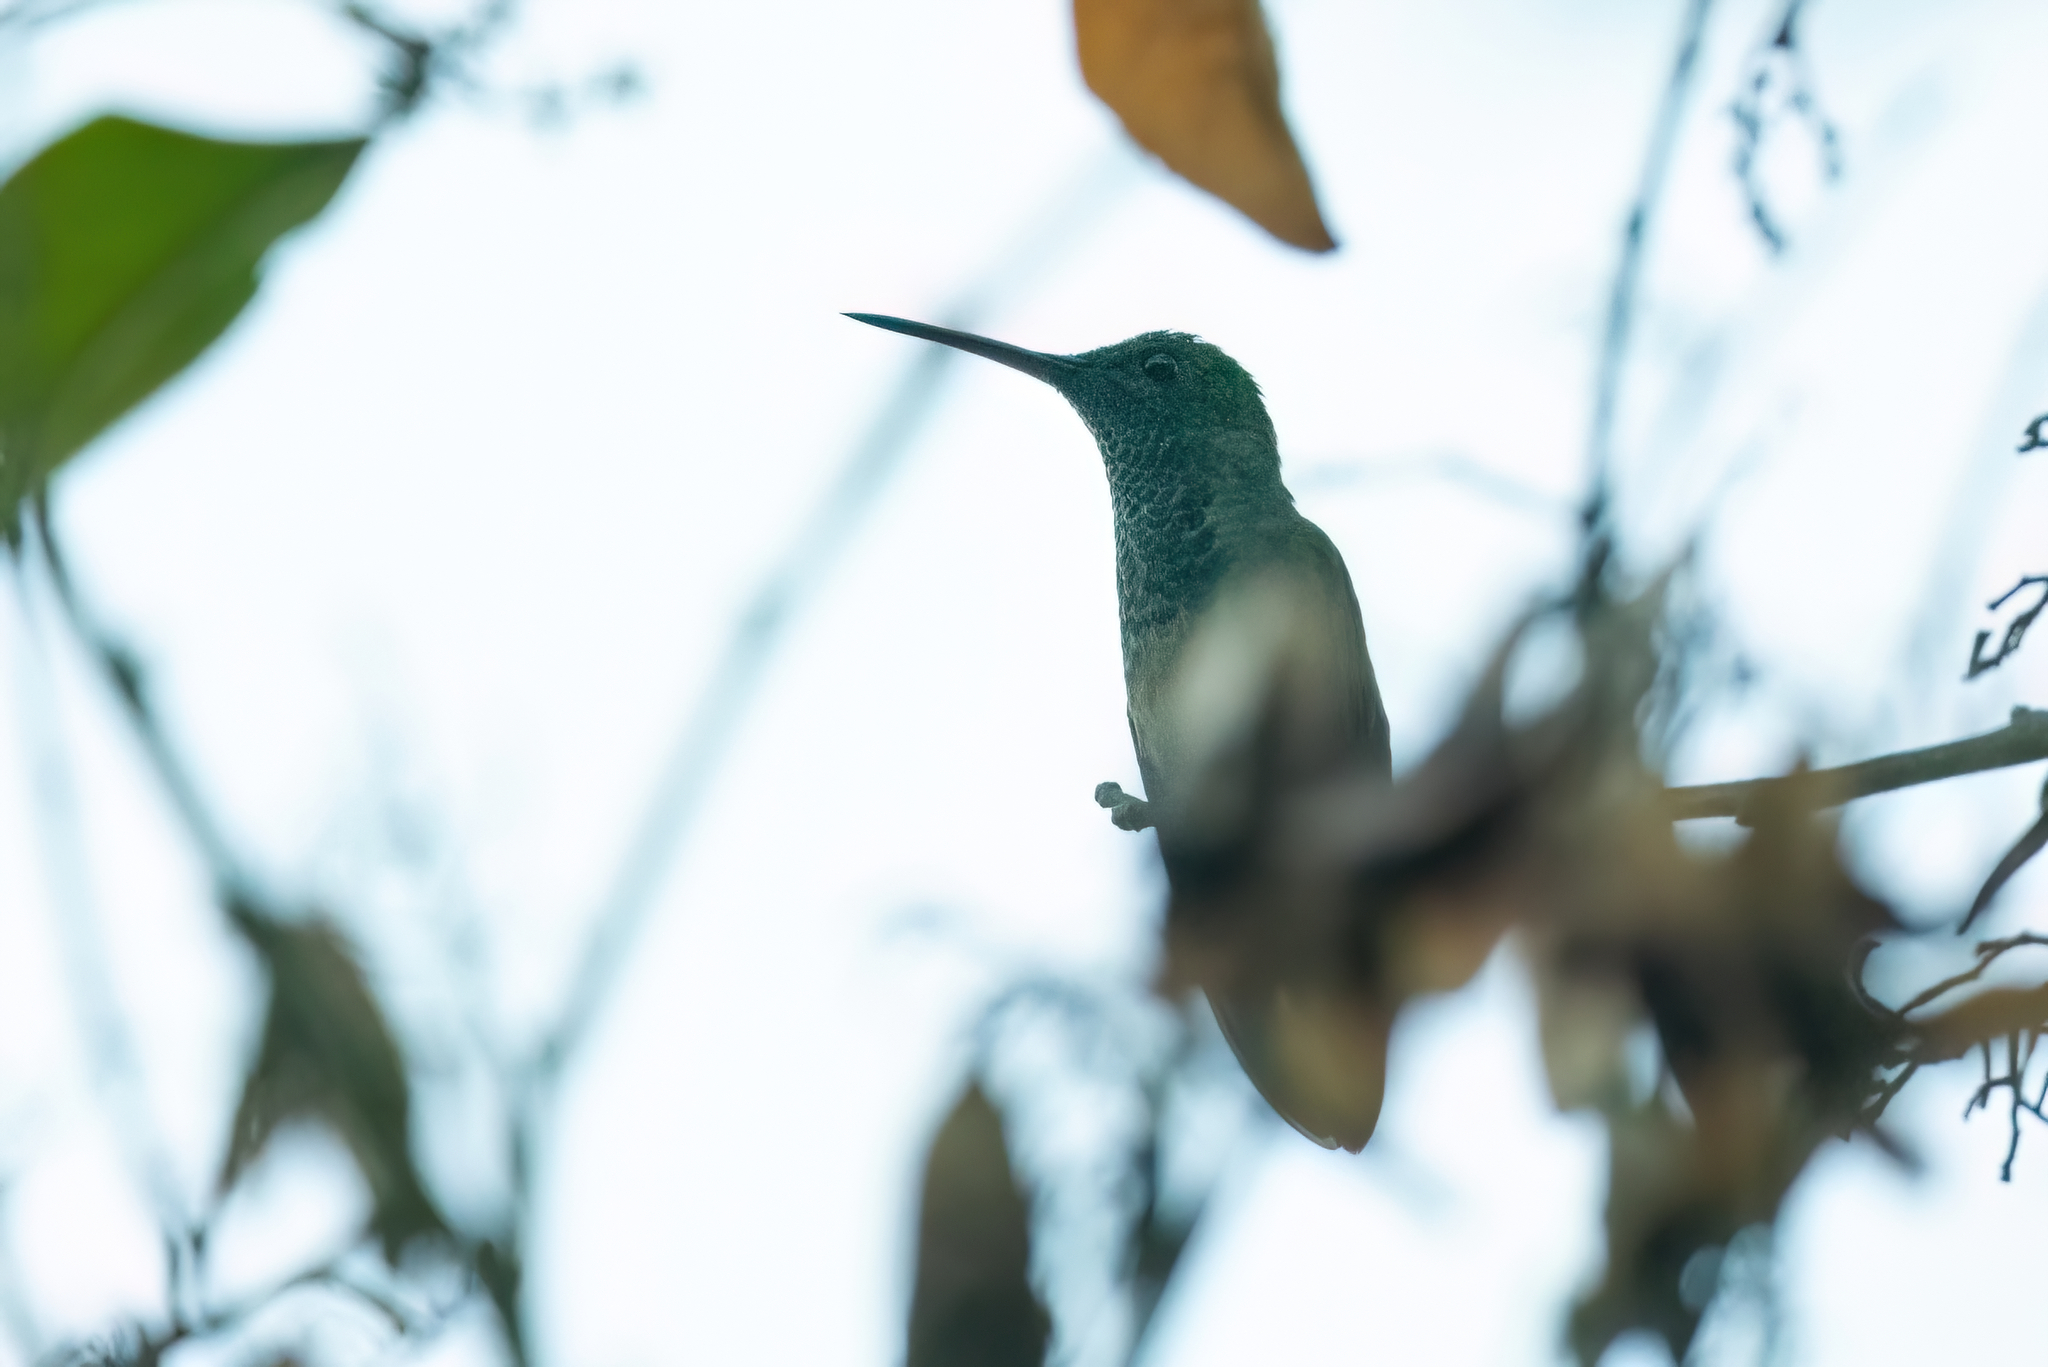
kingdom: Animalia
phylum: Chordata
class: Aves
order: Apodiformes
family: Trochilidae
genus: Saucerottia
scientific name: Saucerottia beryllina
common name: Berylline hummingbird
